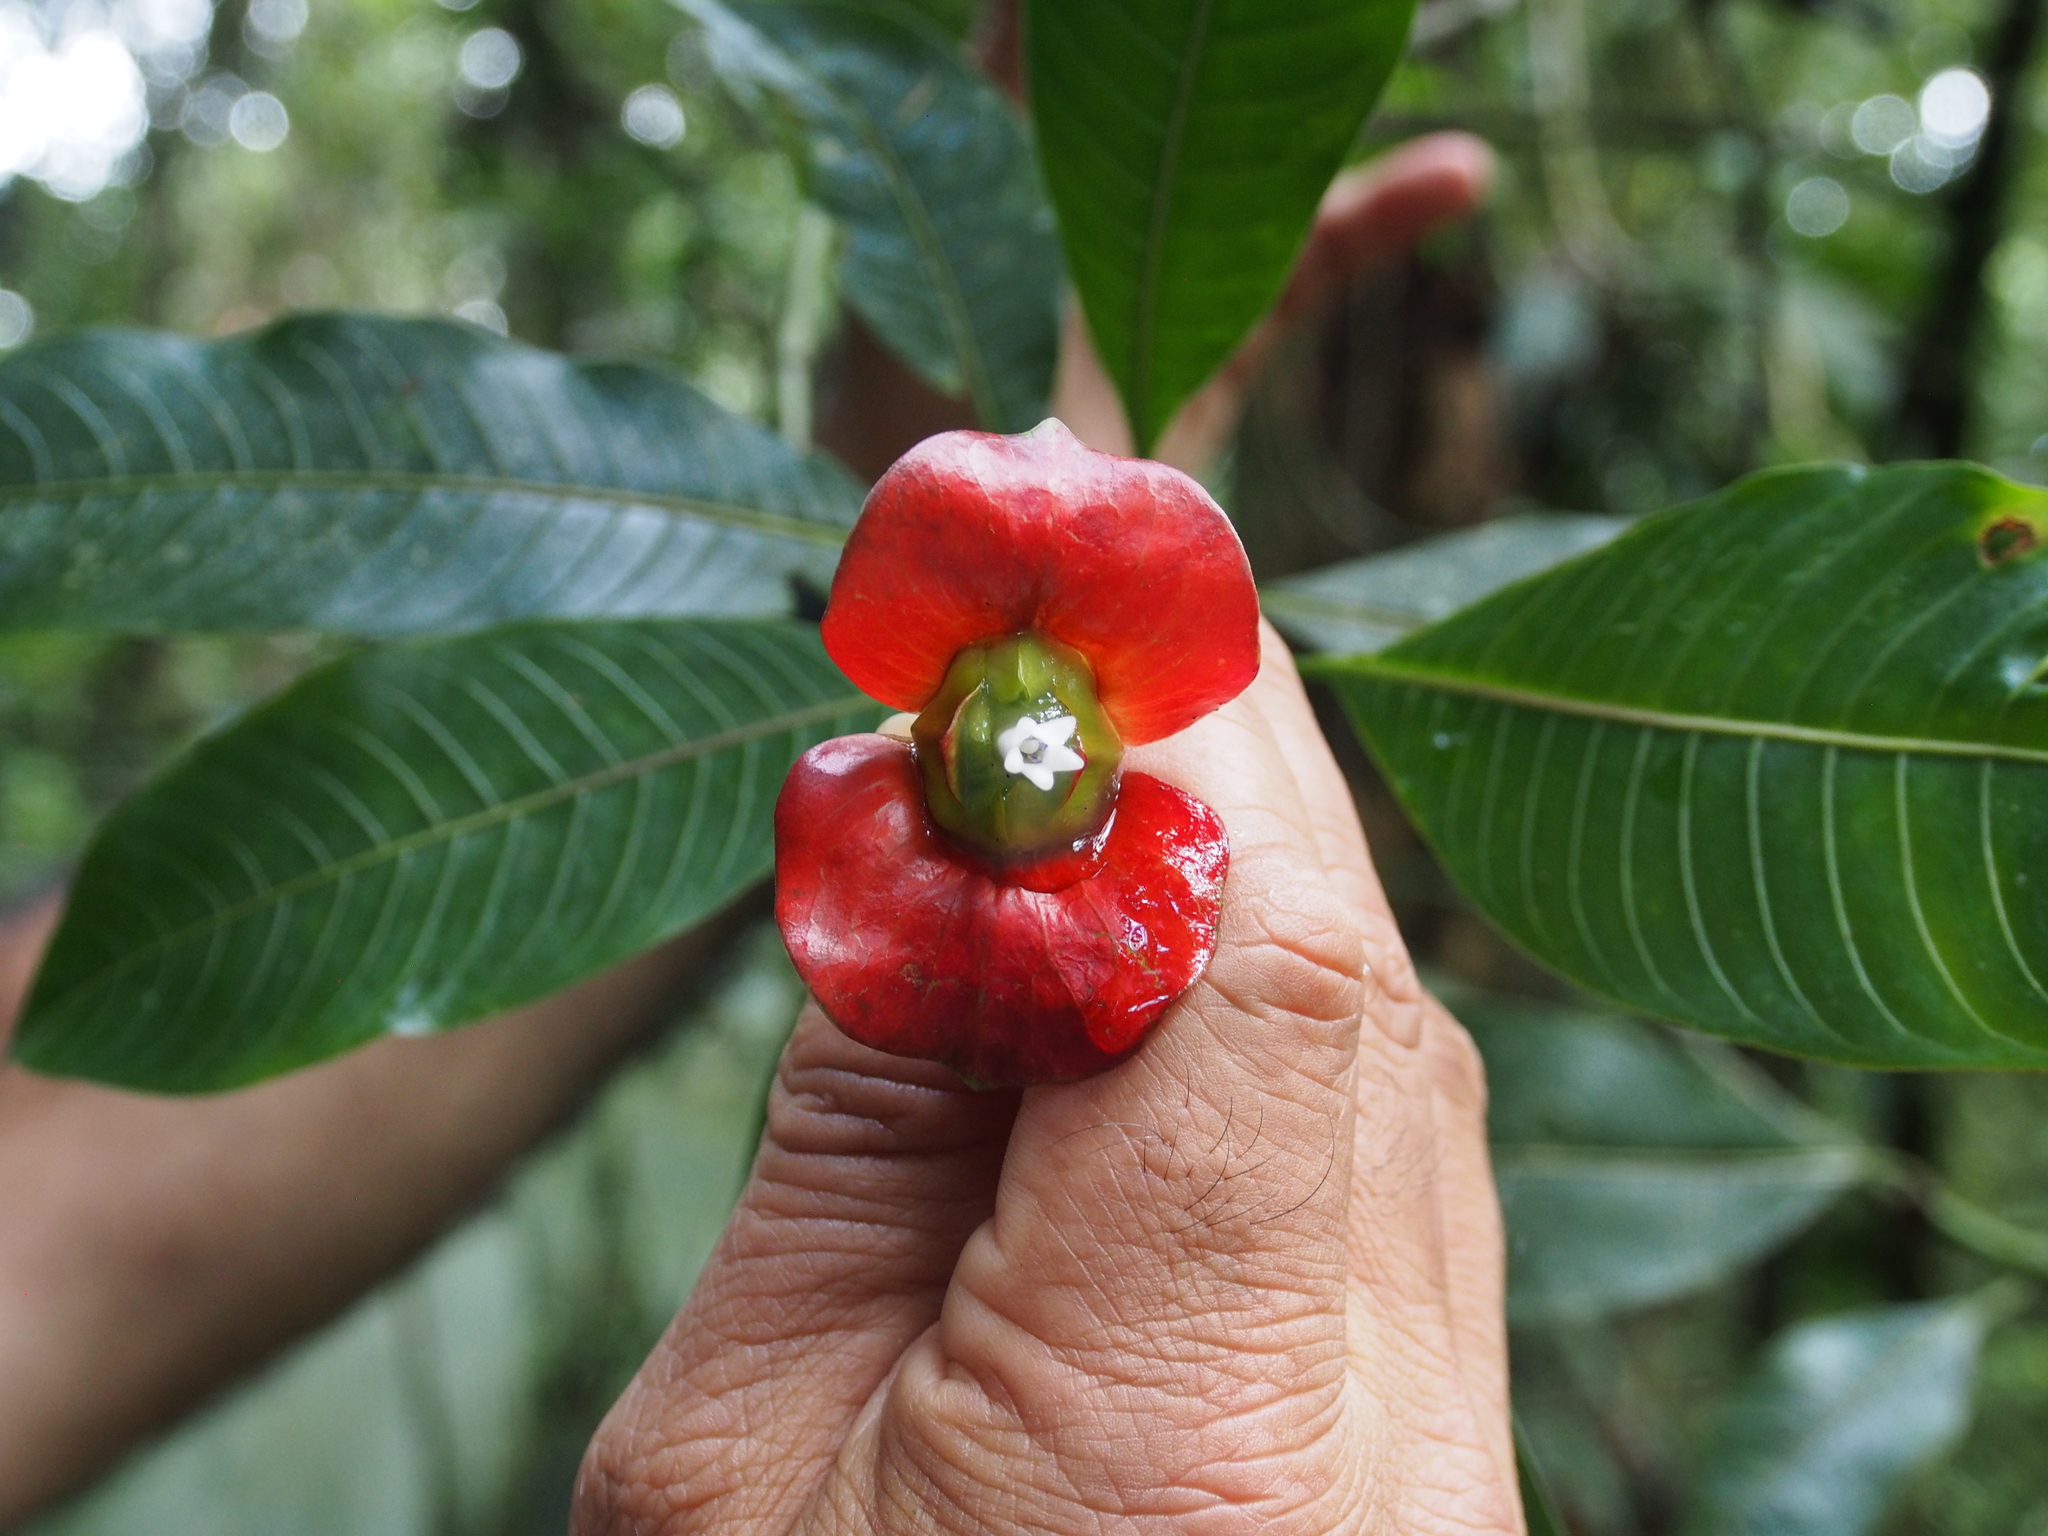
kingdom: Plantae
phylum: Tracheophyta
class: Magnoliopsida
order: Gentianales
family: Rubiaceae
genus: Palicourea
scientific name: Palicourea elata
